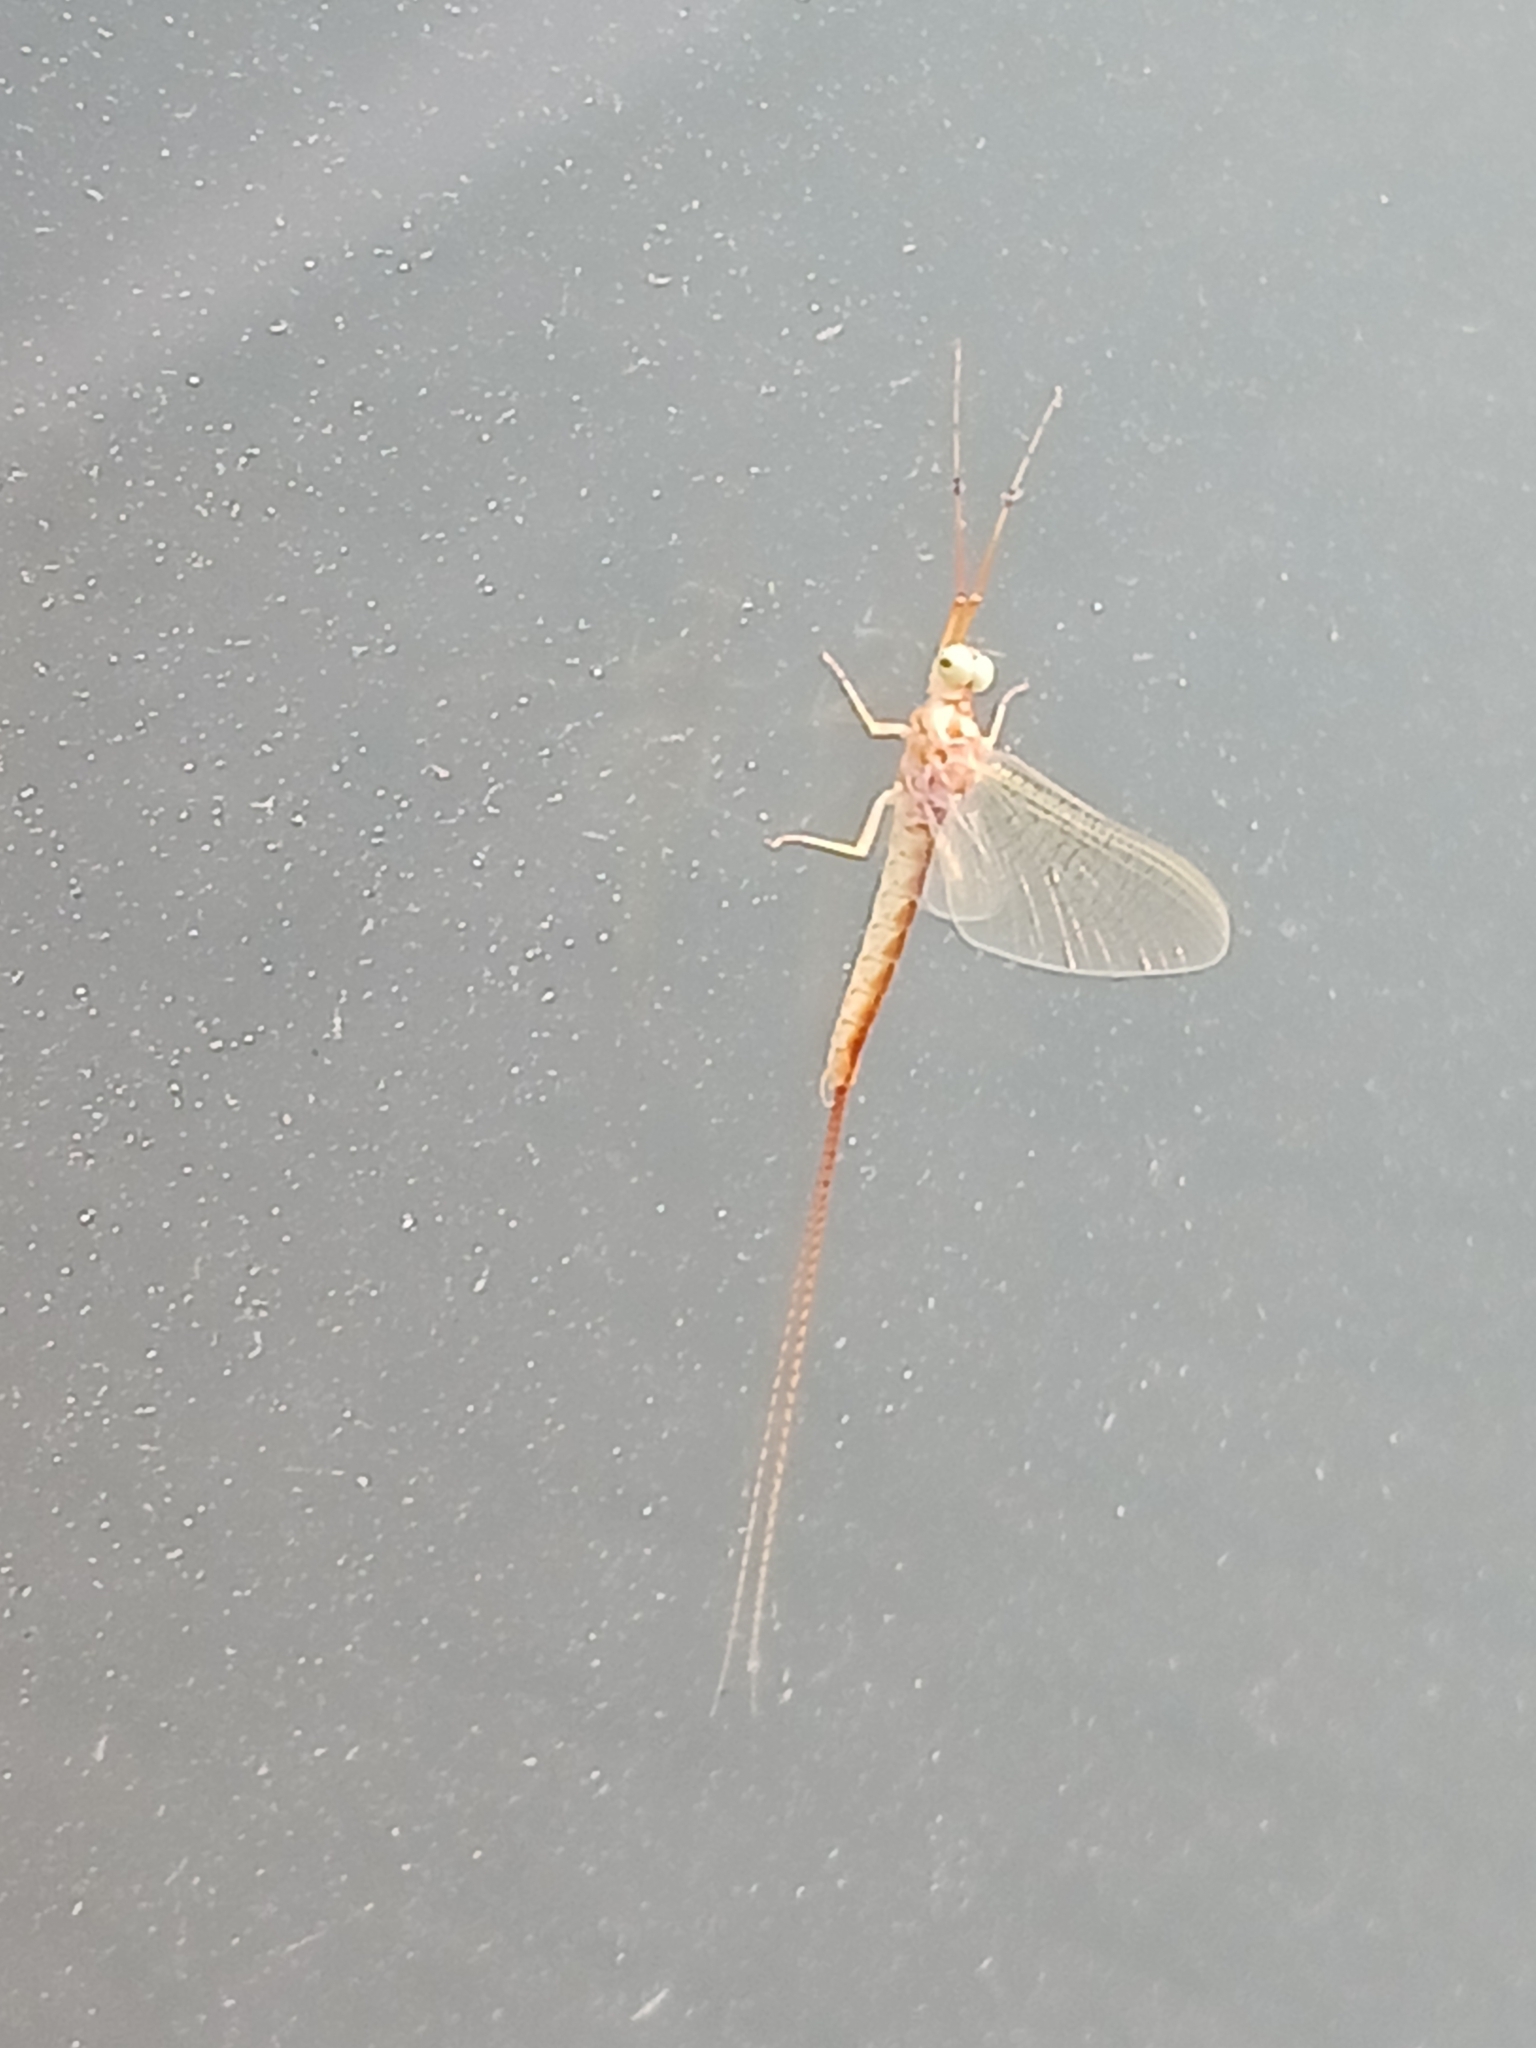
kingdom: Animalia
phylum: Arthropoda
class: Insecta
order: Ephemeroptera
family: Potamanthidae
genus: Potamanthus
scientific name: Potamanthus luteus
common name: Yellow mayfly
